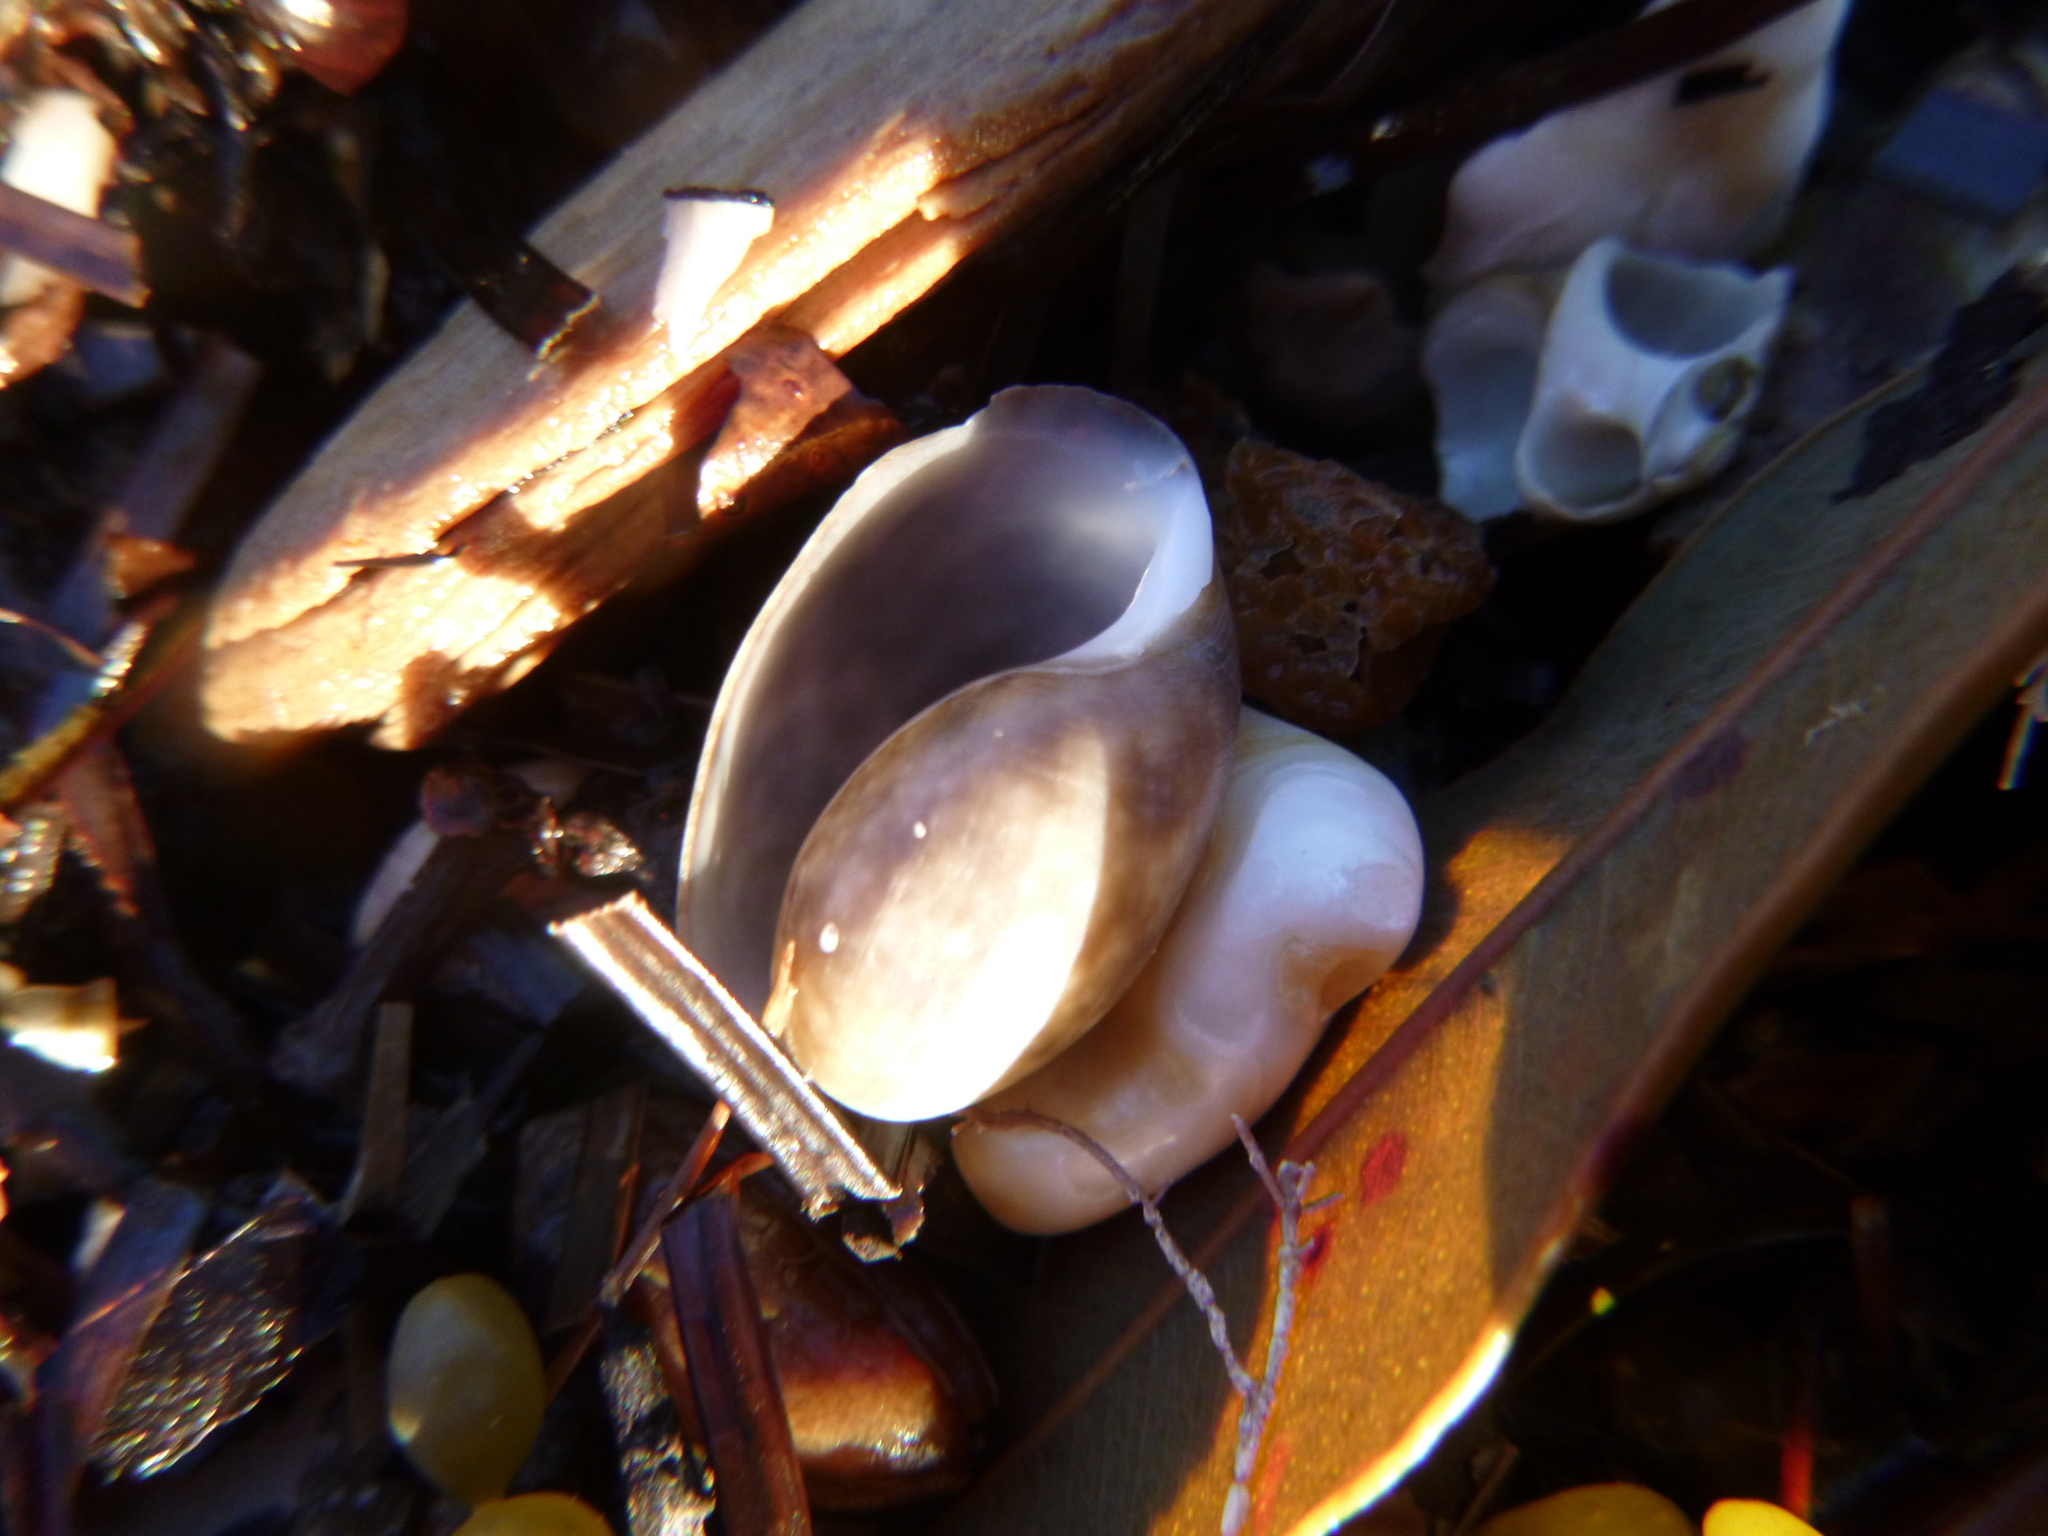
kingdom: Animalia
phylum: Mollusca
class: Gastropoda
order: Cephalaspidea
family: Bullidae
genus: Bulla
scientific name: Bulla quoyii
